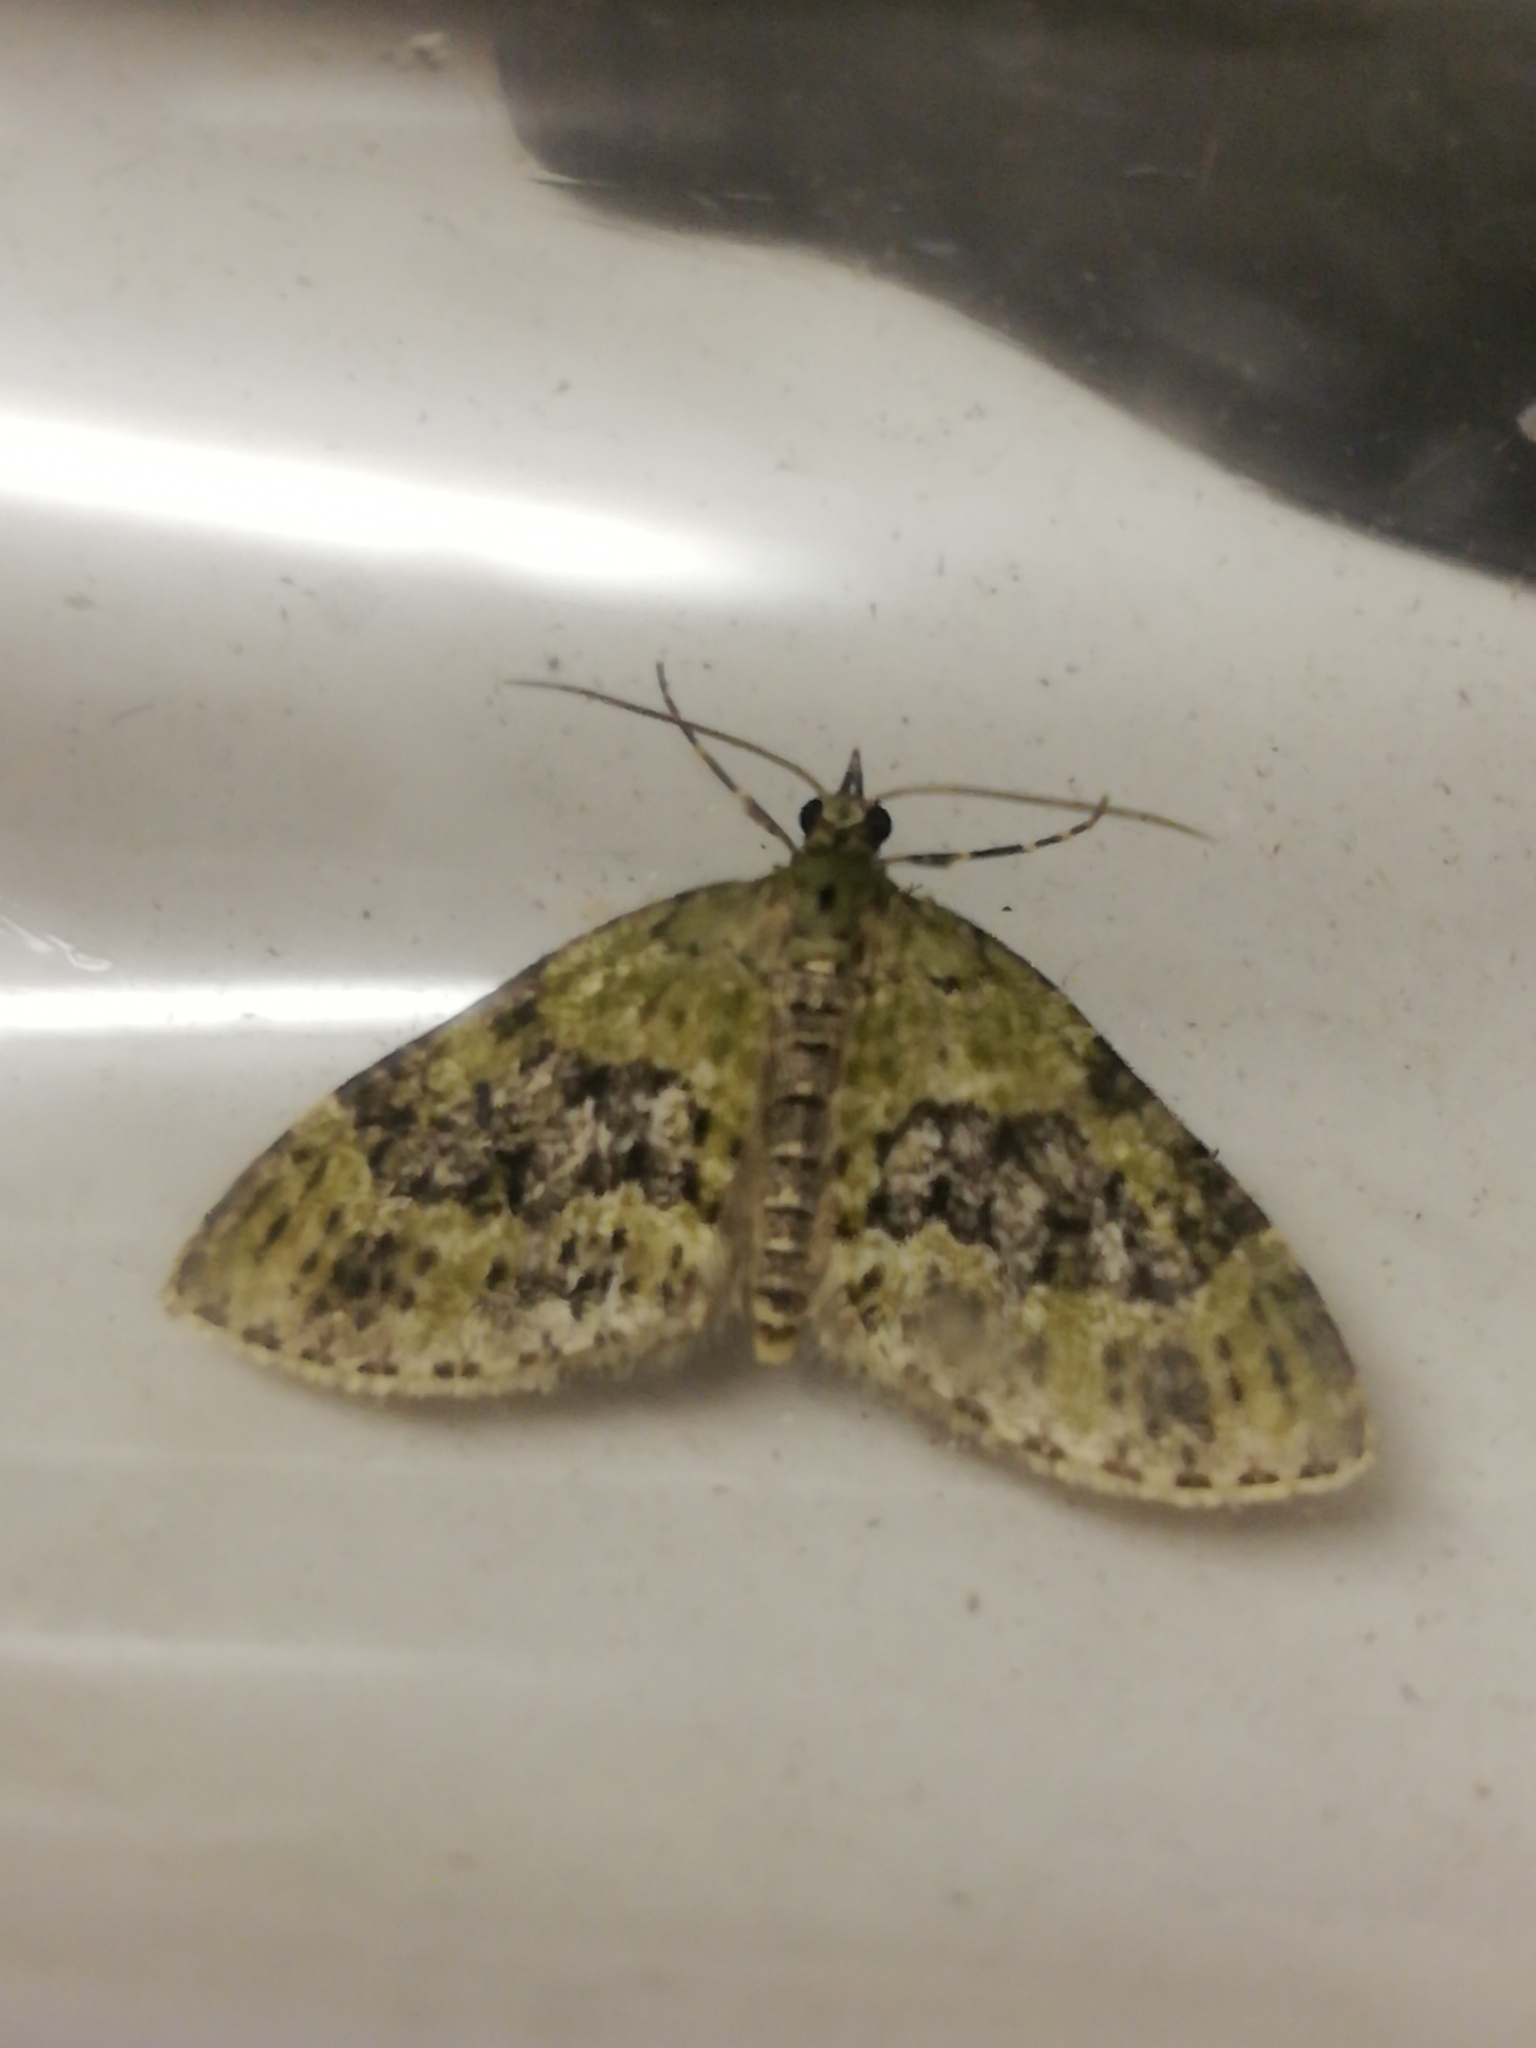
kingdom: Animalia
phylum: Arthropoda
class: Insecta
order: Lepidoptera
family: Geometridae
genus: Acasis
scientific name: Acasis viretata
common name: Yellow-barred brindle
